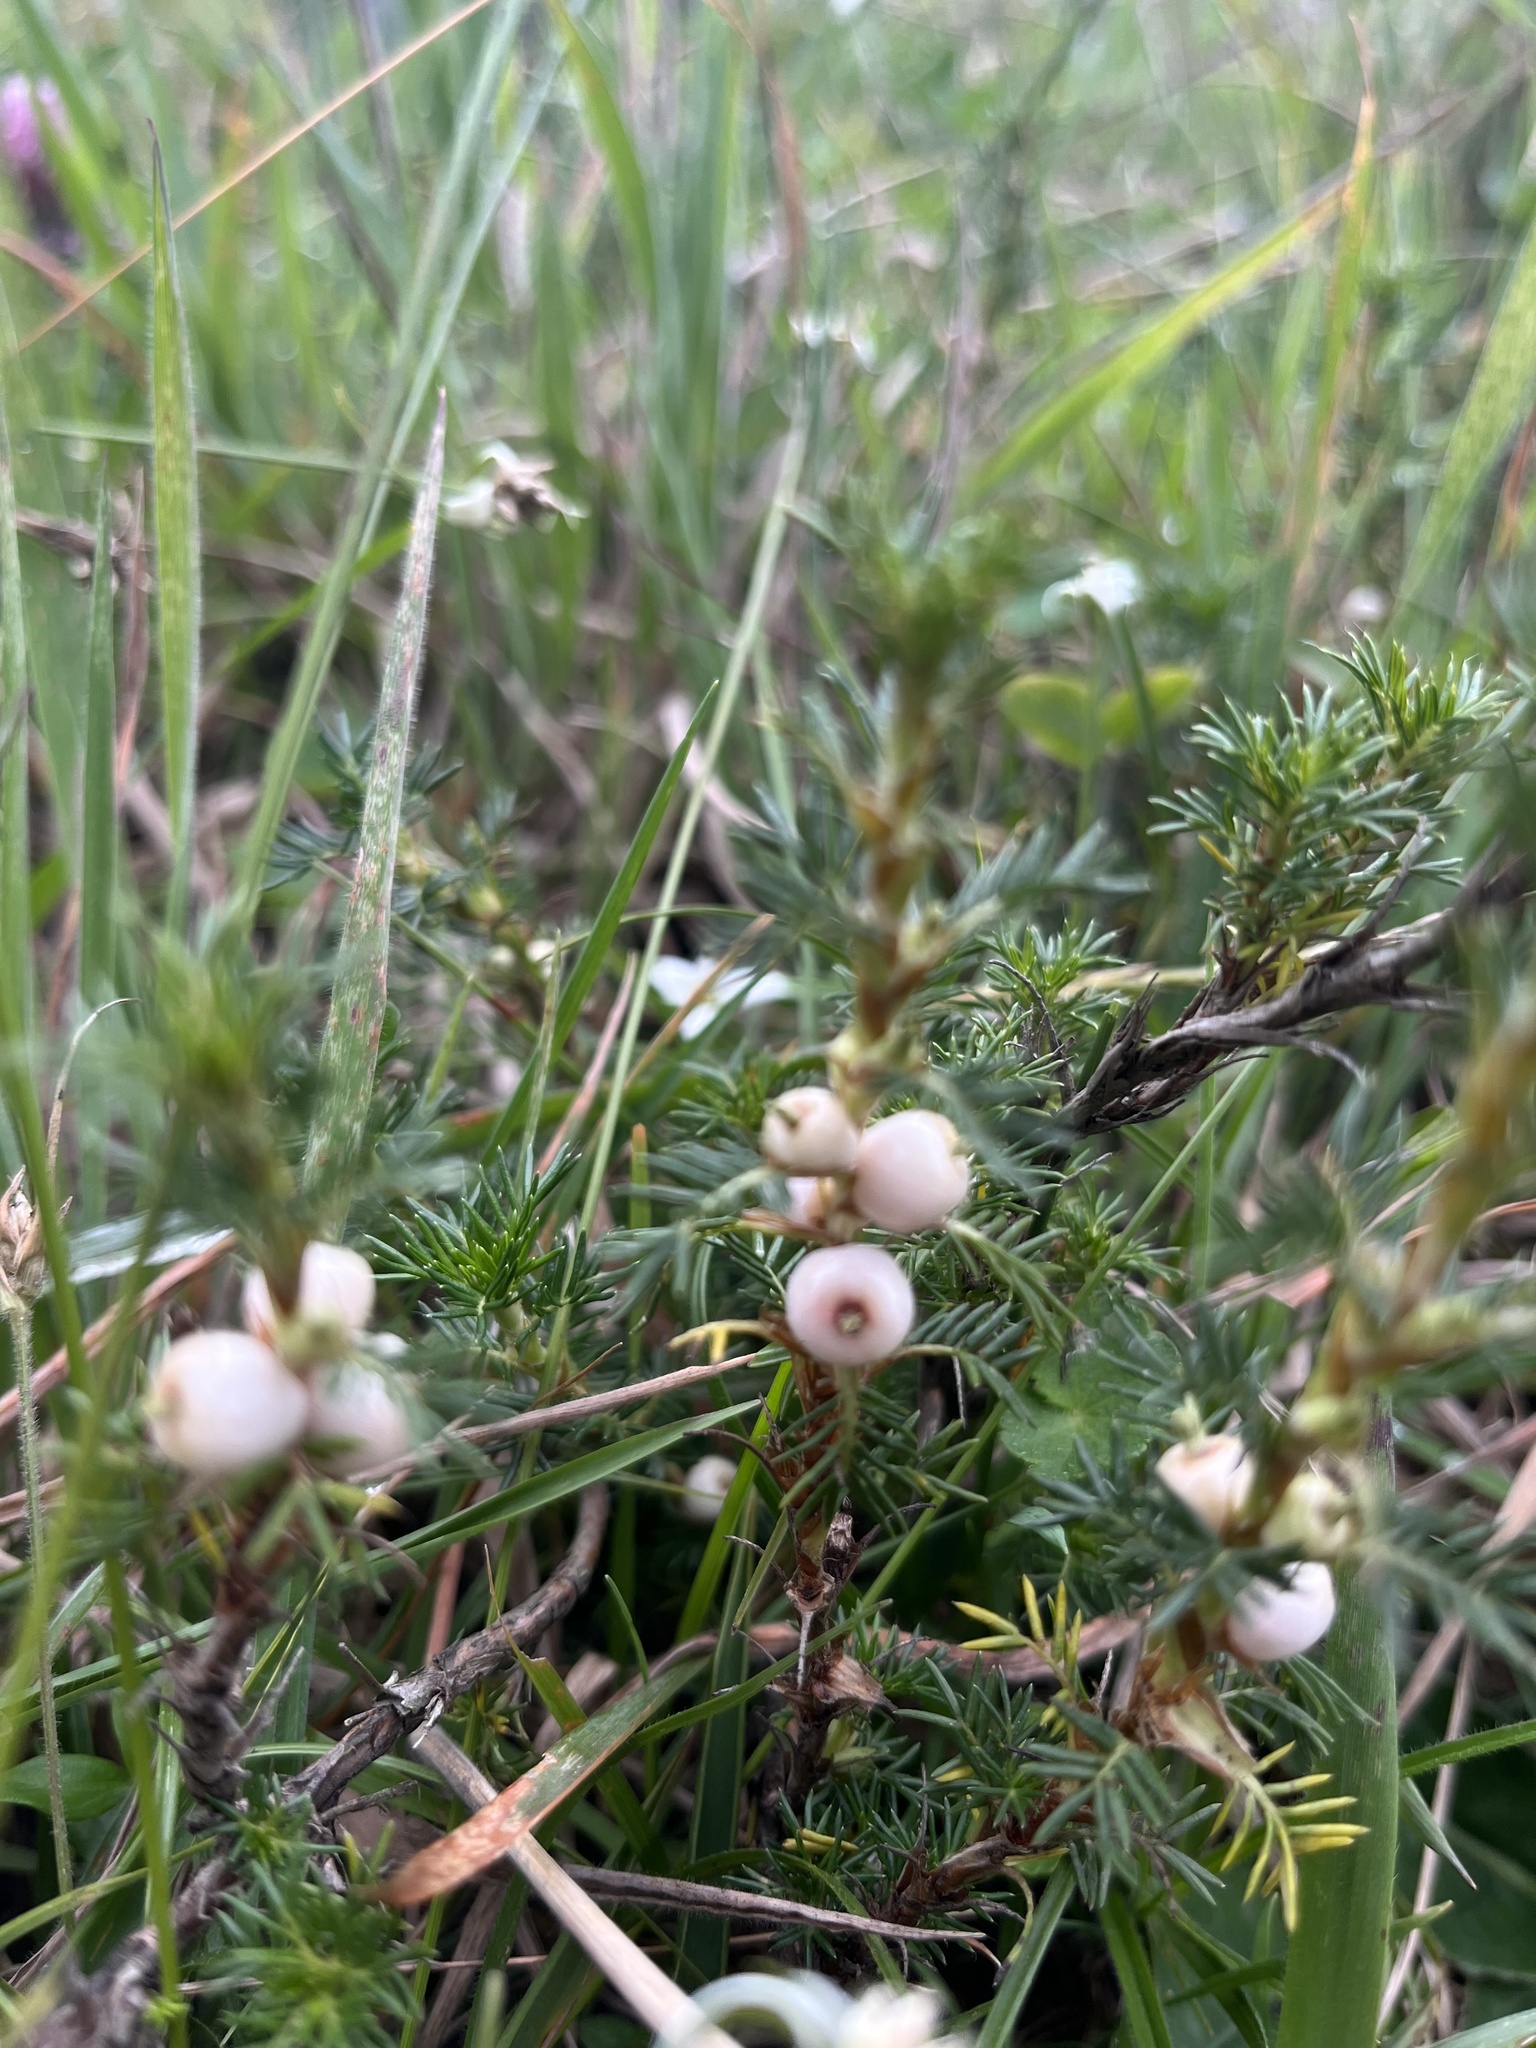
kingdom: Plantae
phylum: Tracheophyta
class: Magnoliopsida
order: Rosales
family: Rosaceae
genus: Margyricarpus
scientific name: Margyricarpus pinnatus
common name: Pearlfruit
